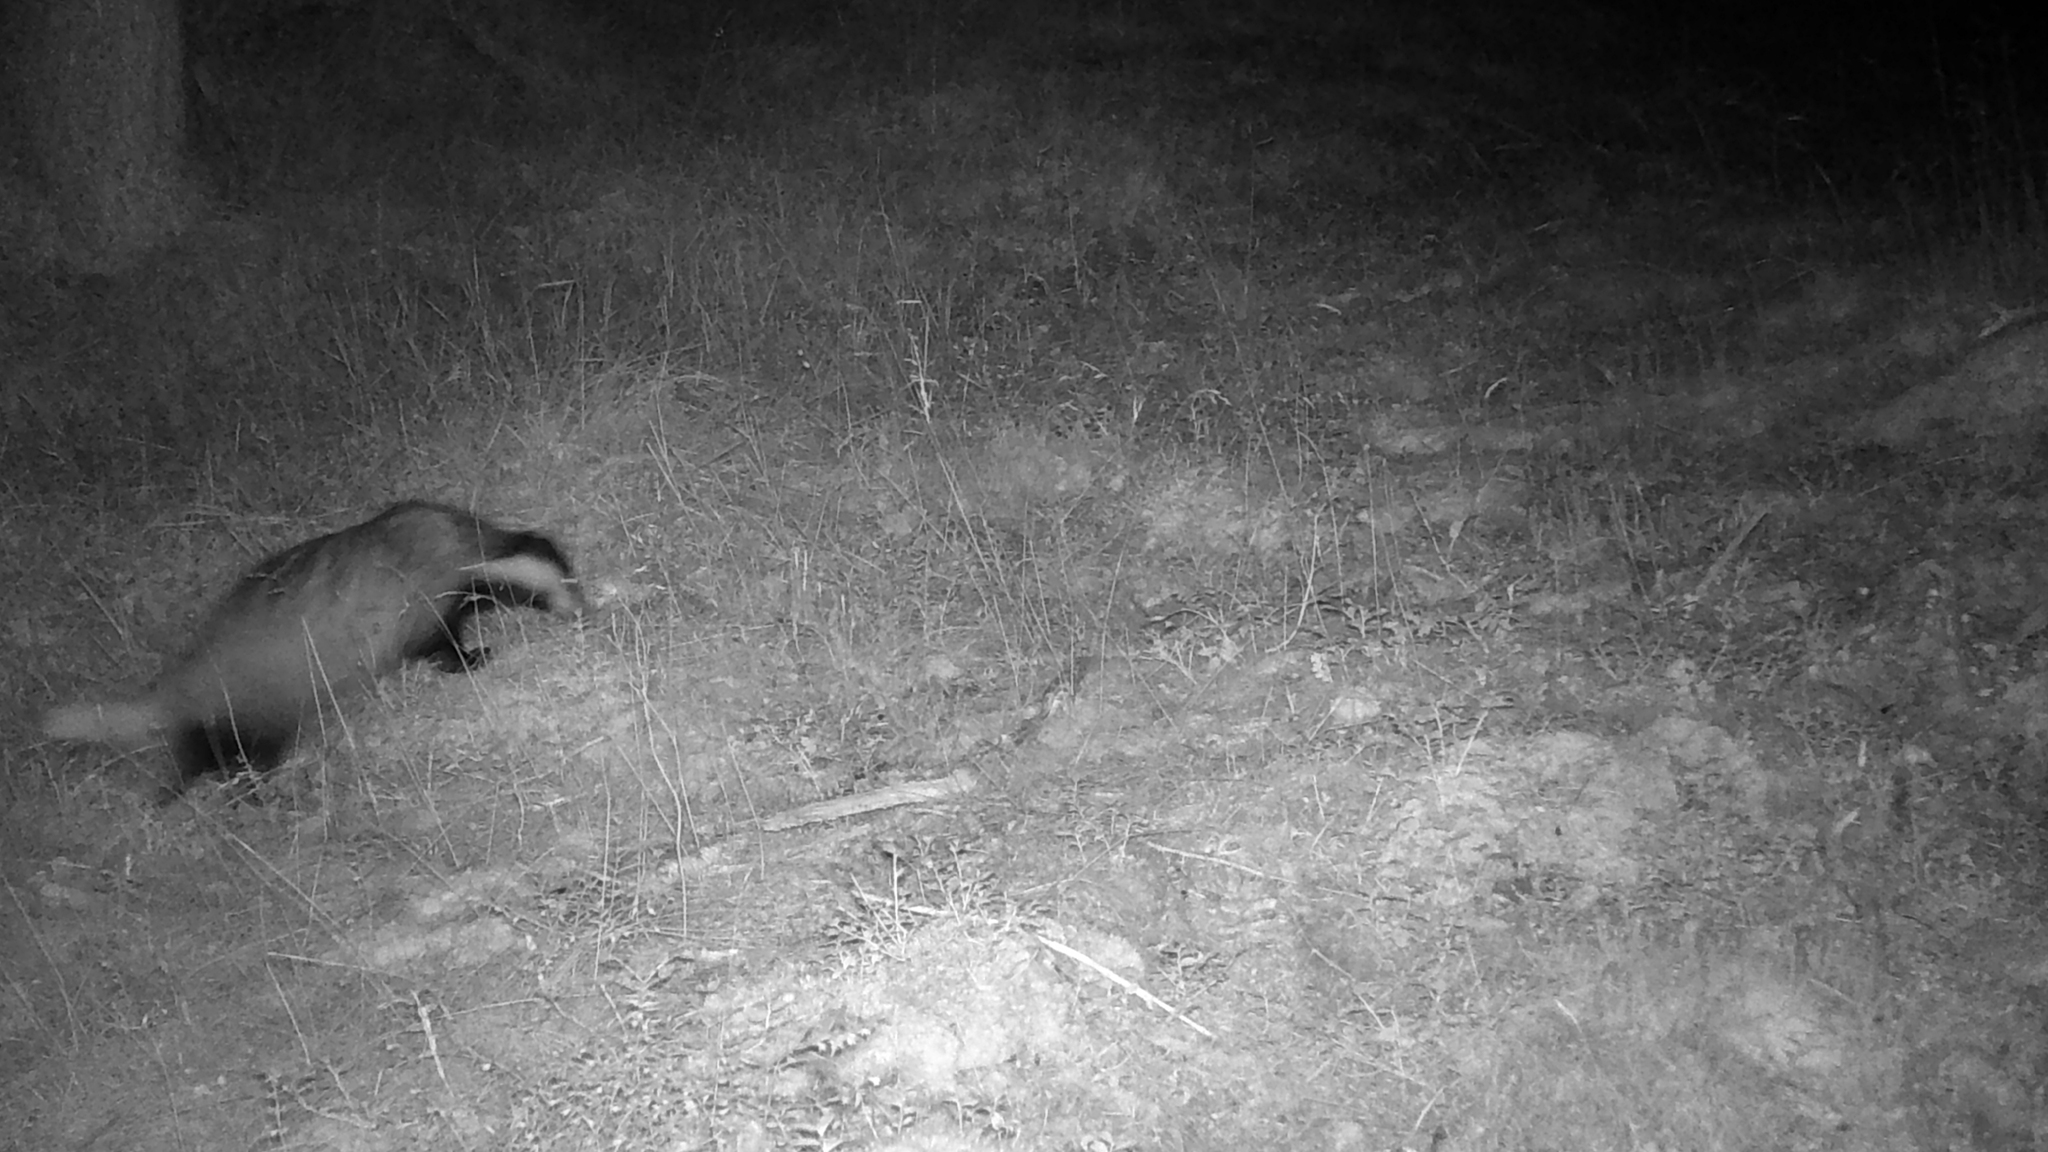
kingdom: Animalia
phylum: Chordata
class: Mammalia
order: Carnivora
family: Mustelidae
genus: Meles
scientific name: Meles meles
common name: Eurasian badger
